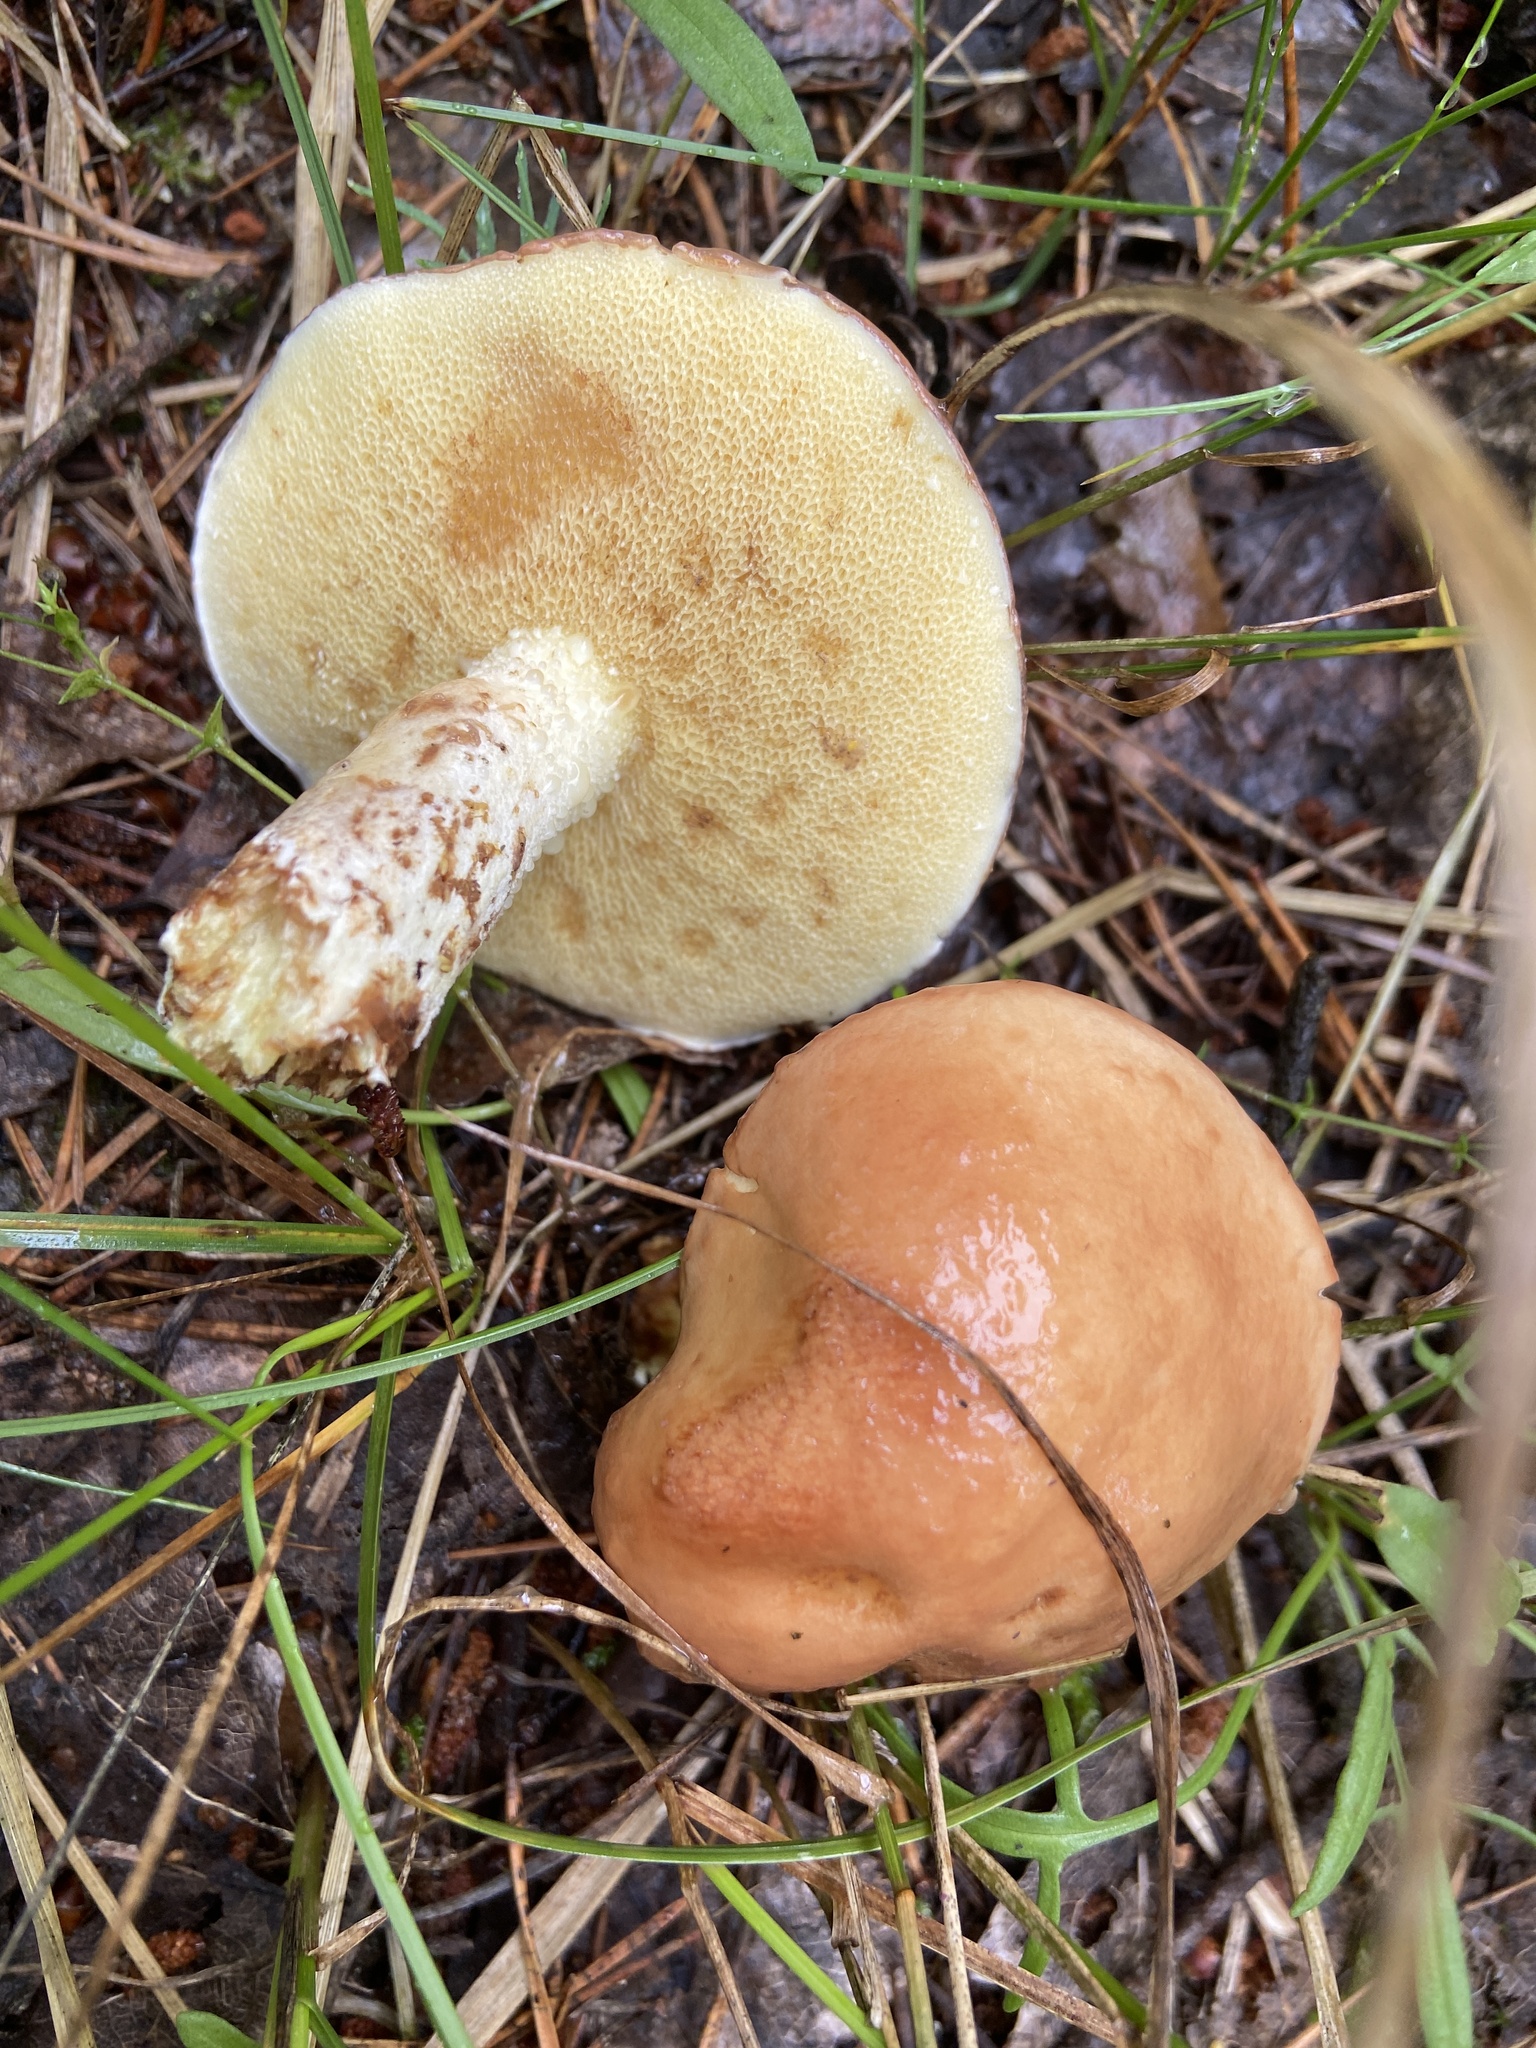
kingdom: Fungi
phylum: Basidiomycota
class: Agaricomycetes
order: Boletales
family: Suillaceae
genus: Suillus
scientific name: Suillus granulatus
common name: Weeping bolete
